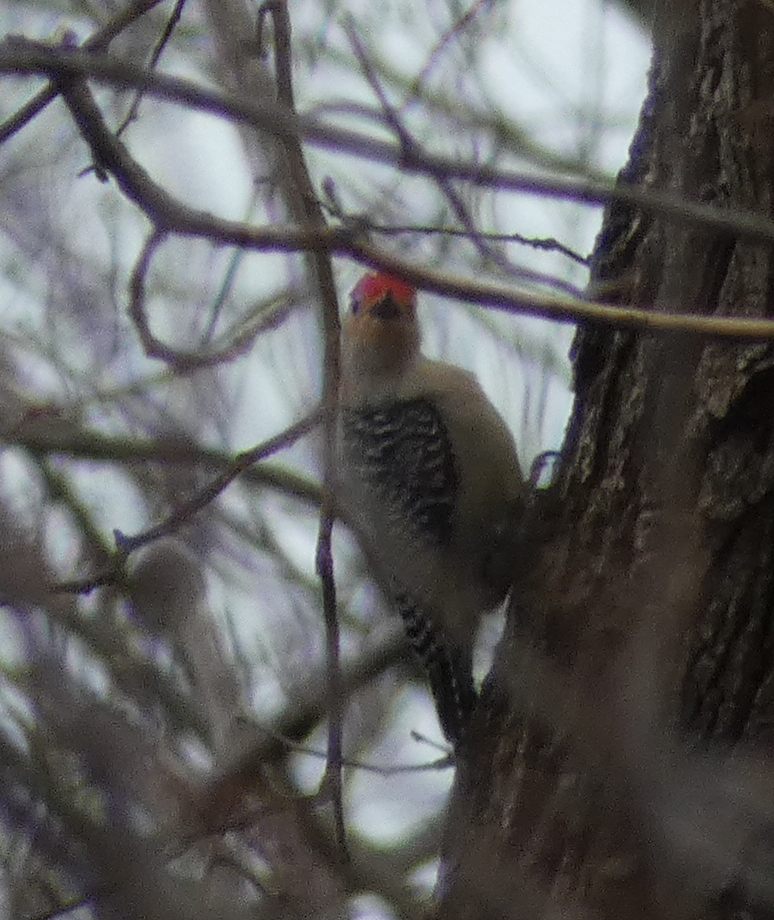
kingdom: Animalia
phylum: Chordata
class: Aves
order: Piciformes
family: Picidae
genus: Melanerpes
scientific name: Melanerpes carolinus
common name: Red-bellied woodpecker
